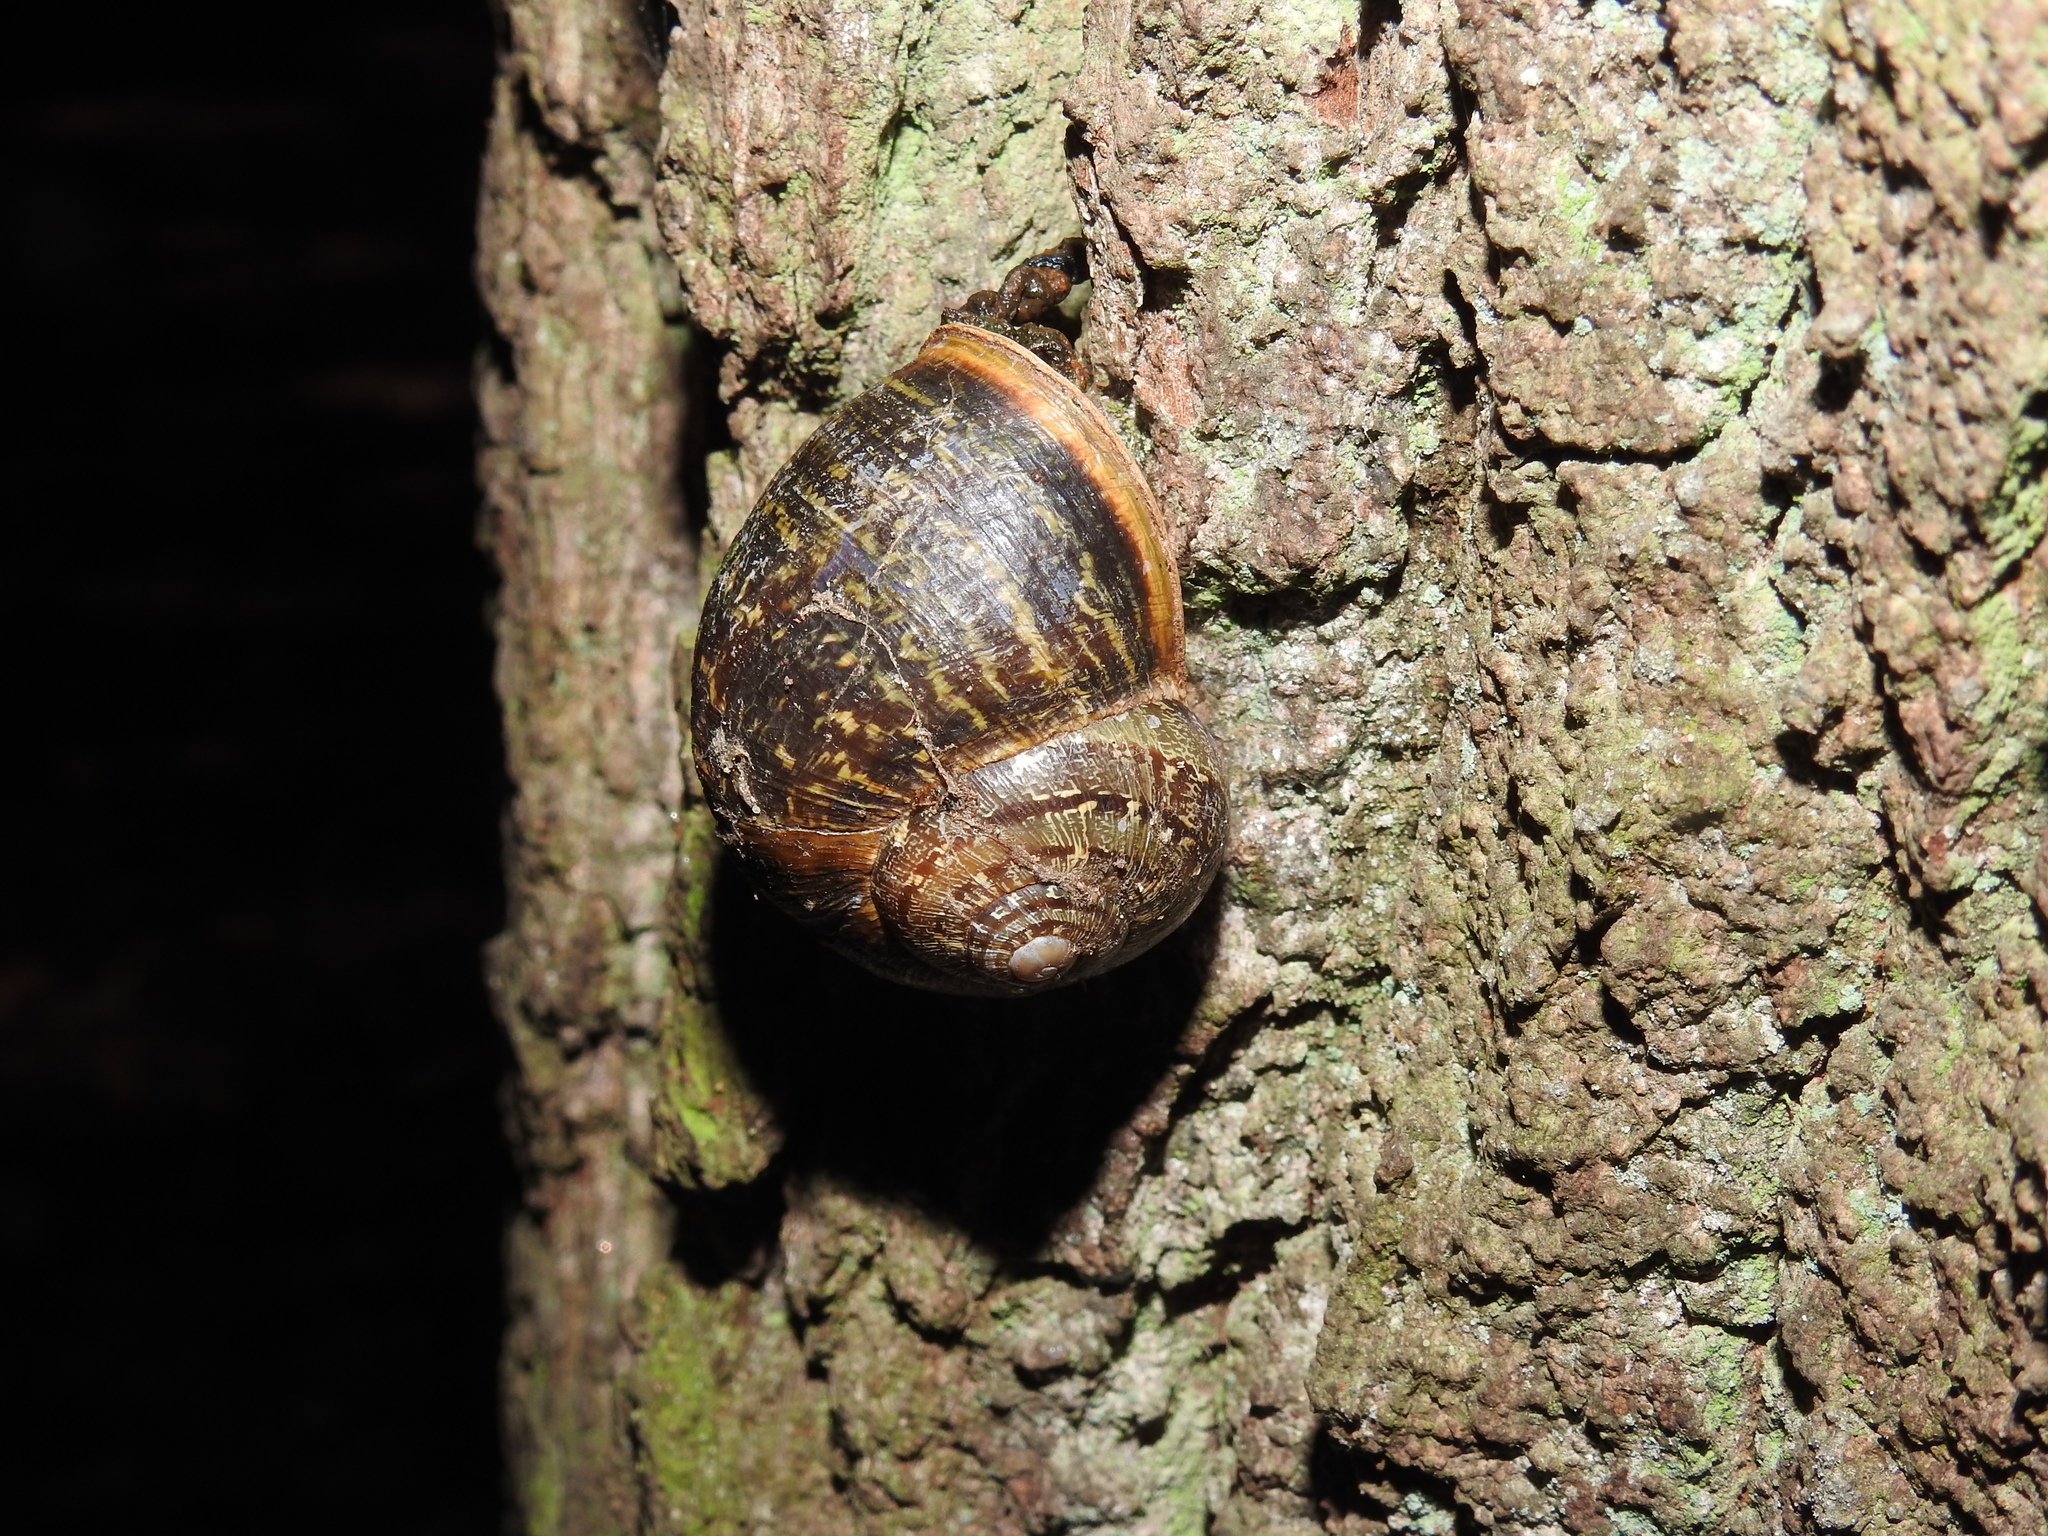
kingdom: Animalia
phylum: Mollusca
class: Gastropoda
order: Stylommatophora
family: Helicidae
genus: Cornu
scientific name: Cornu aspersum
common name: Brown garden snail
